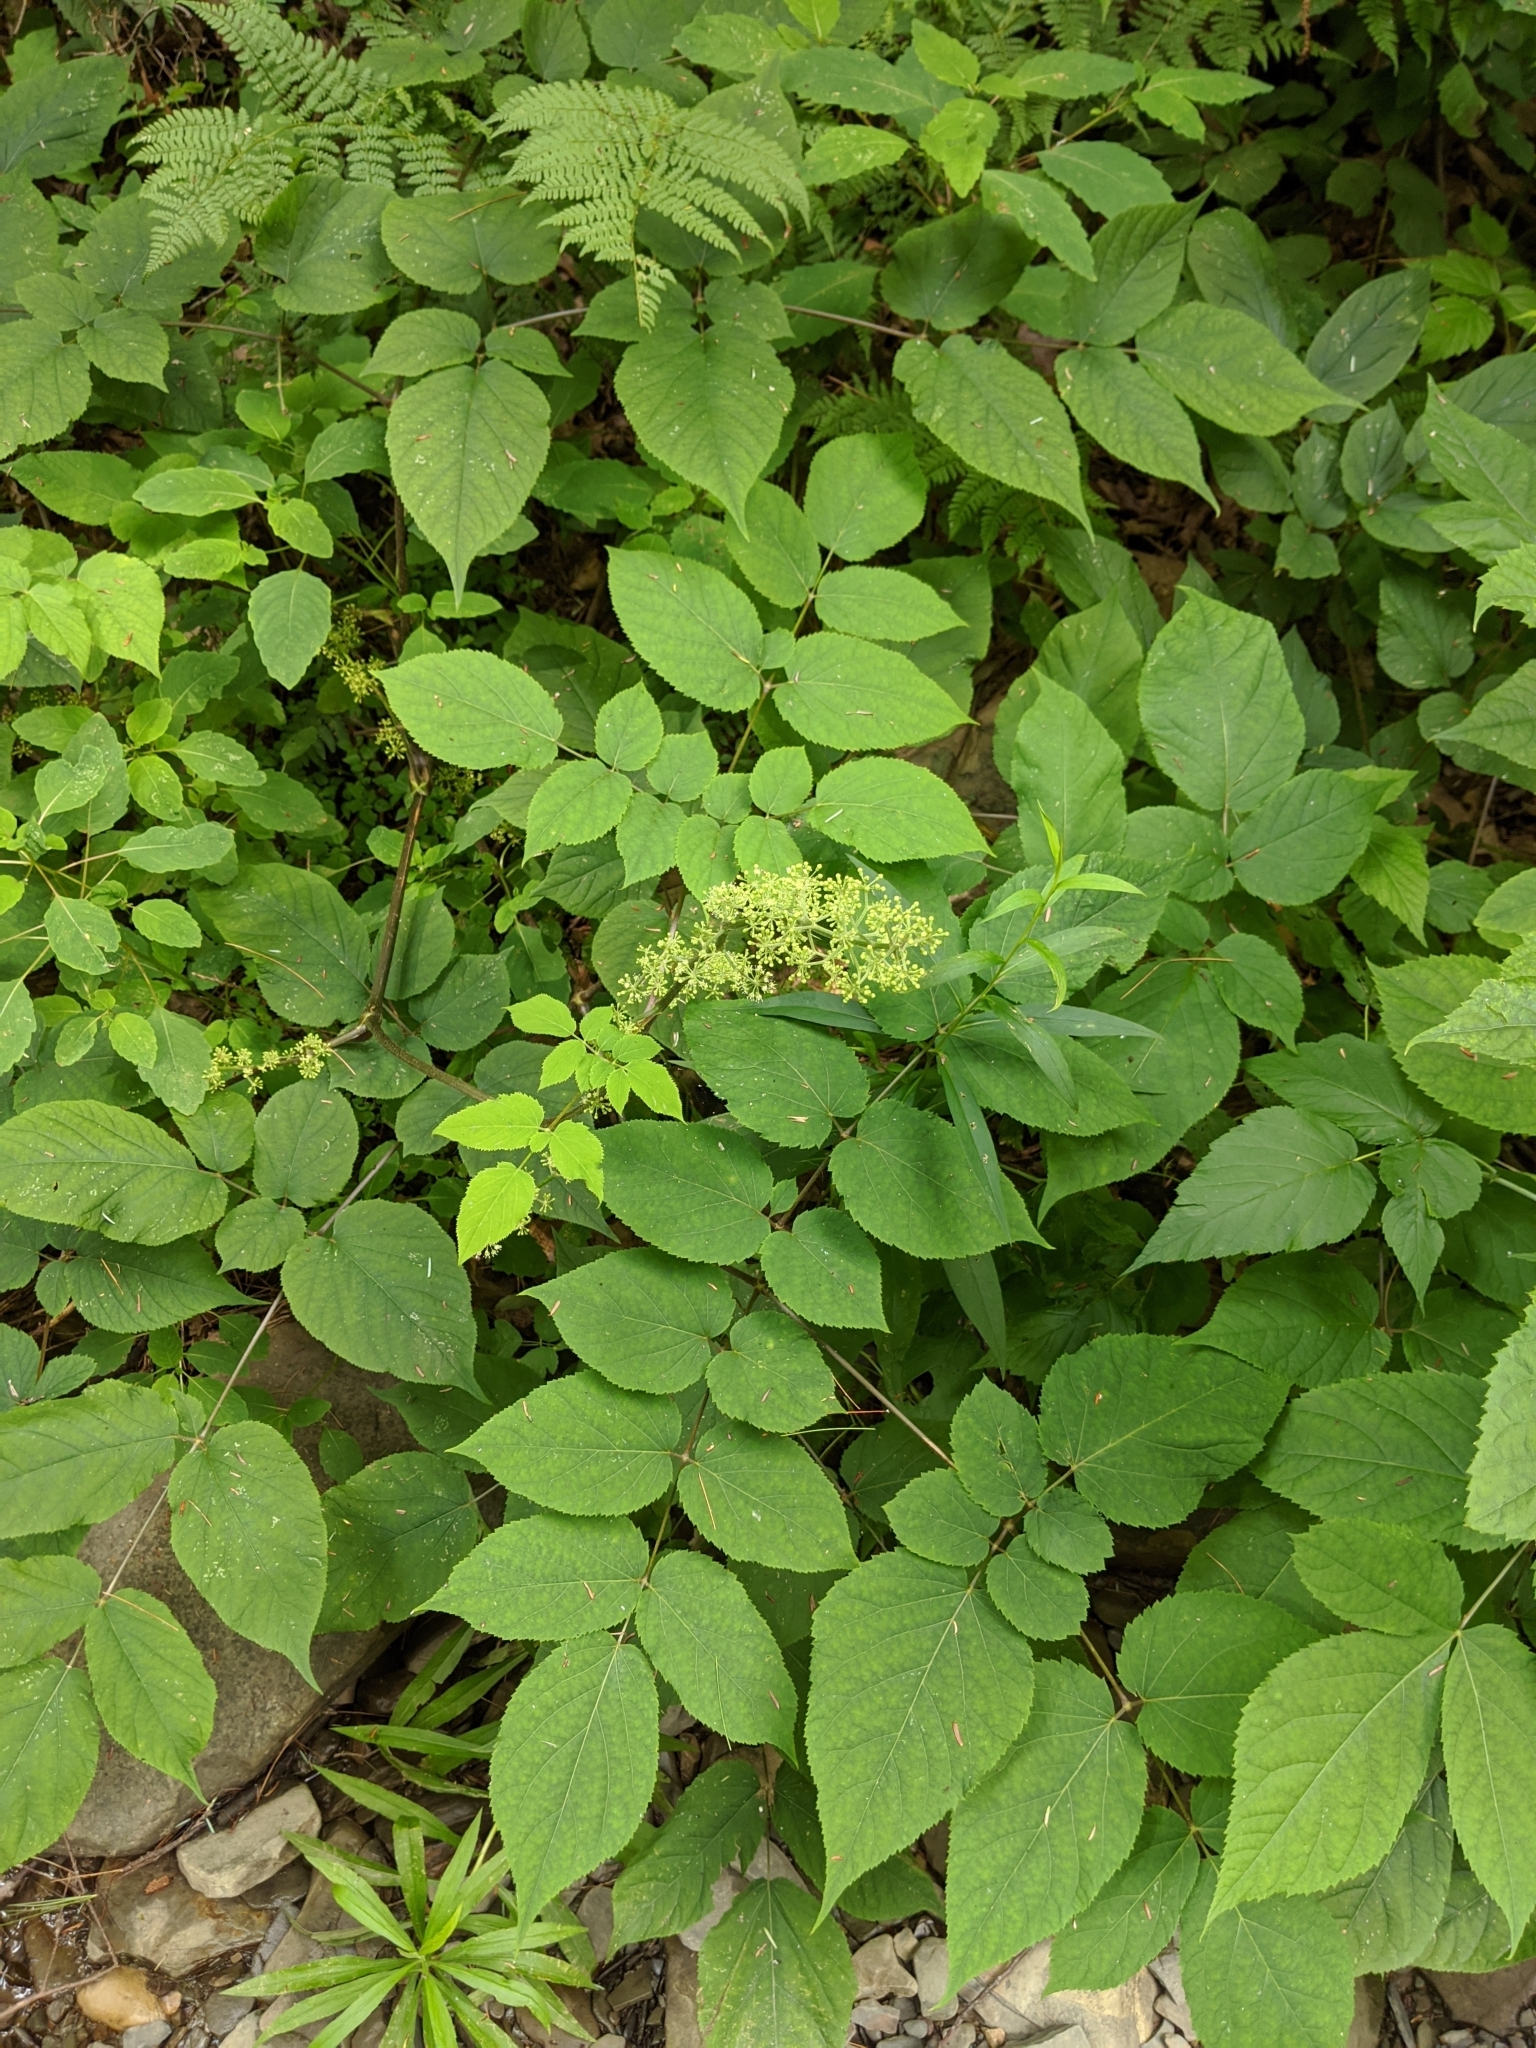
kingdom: Plantae
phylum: Tracheophyta
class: Magnoliopsida
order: Apiales
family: Araliaceae
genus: Aralia
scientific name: Aralia racemosa
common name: American-spikenard
